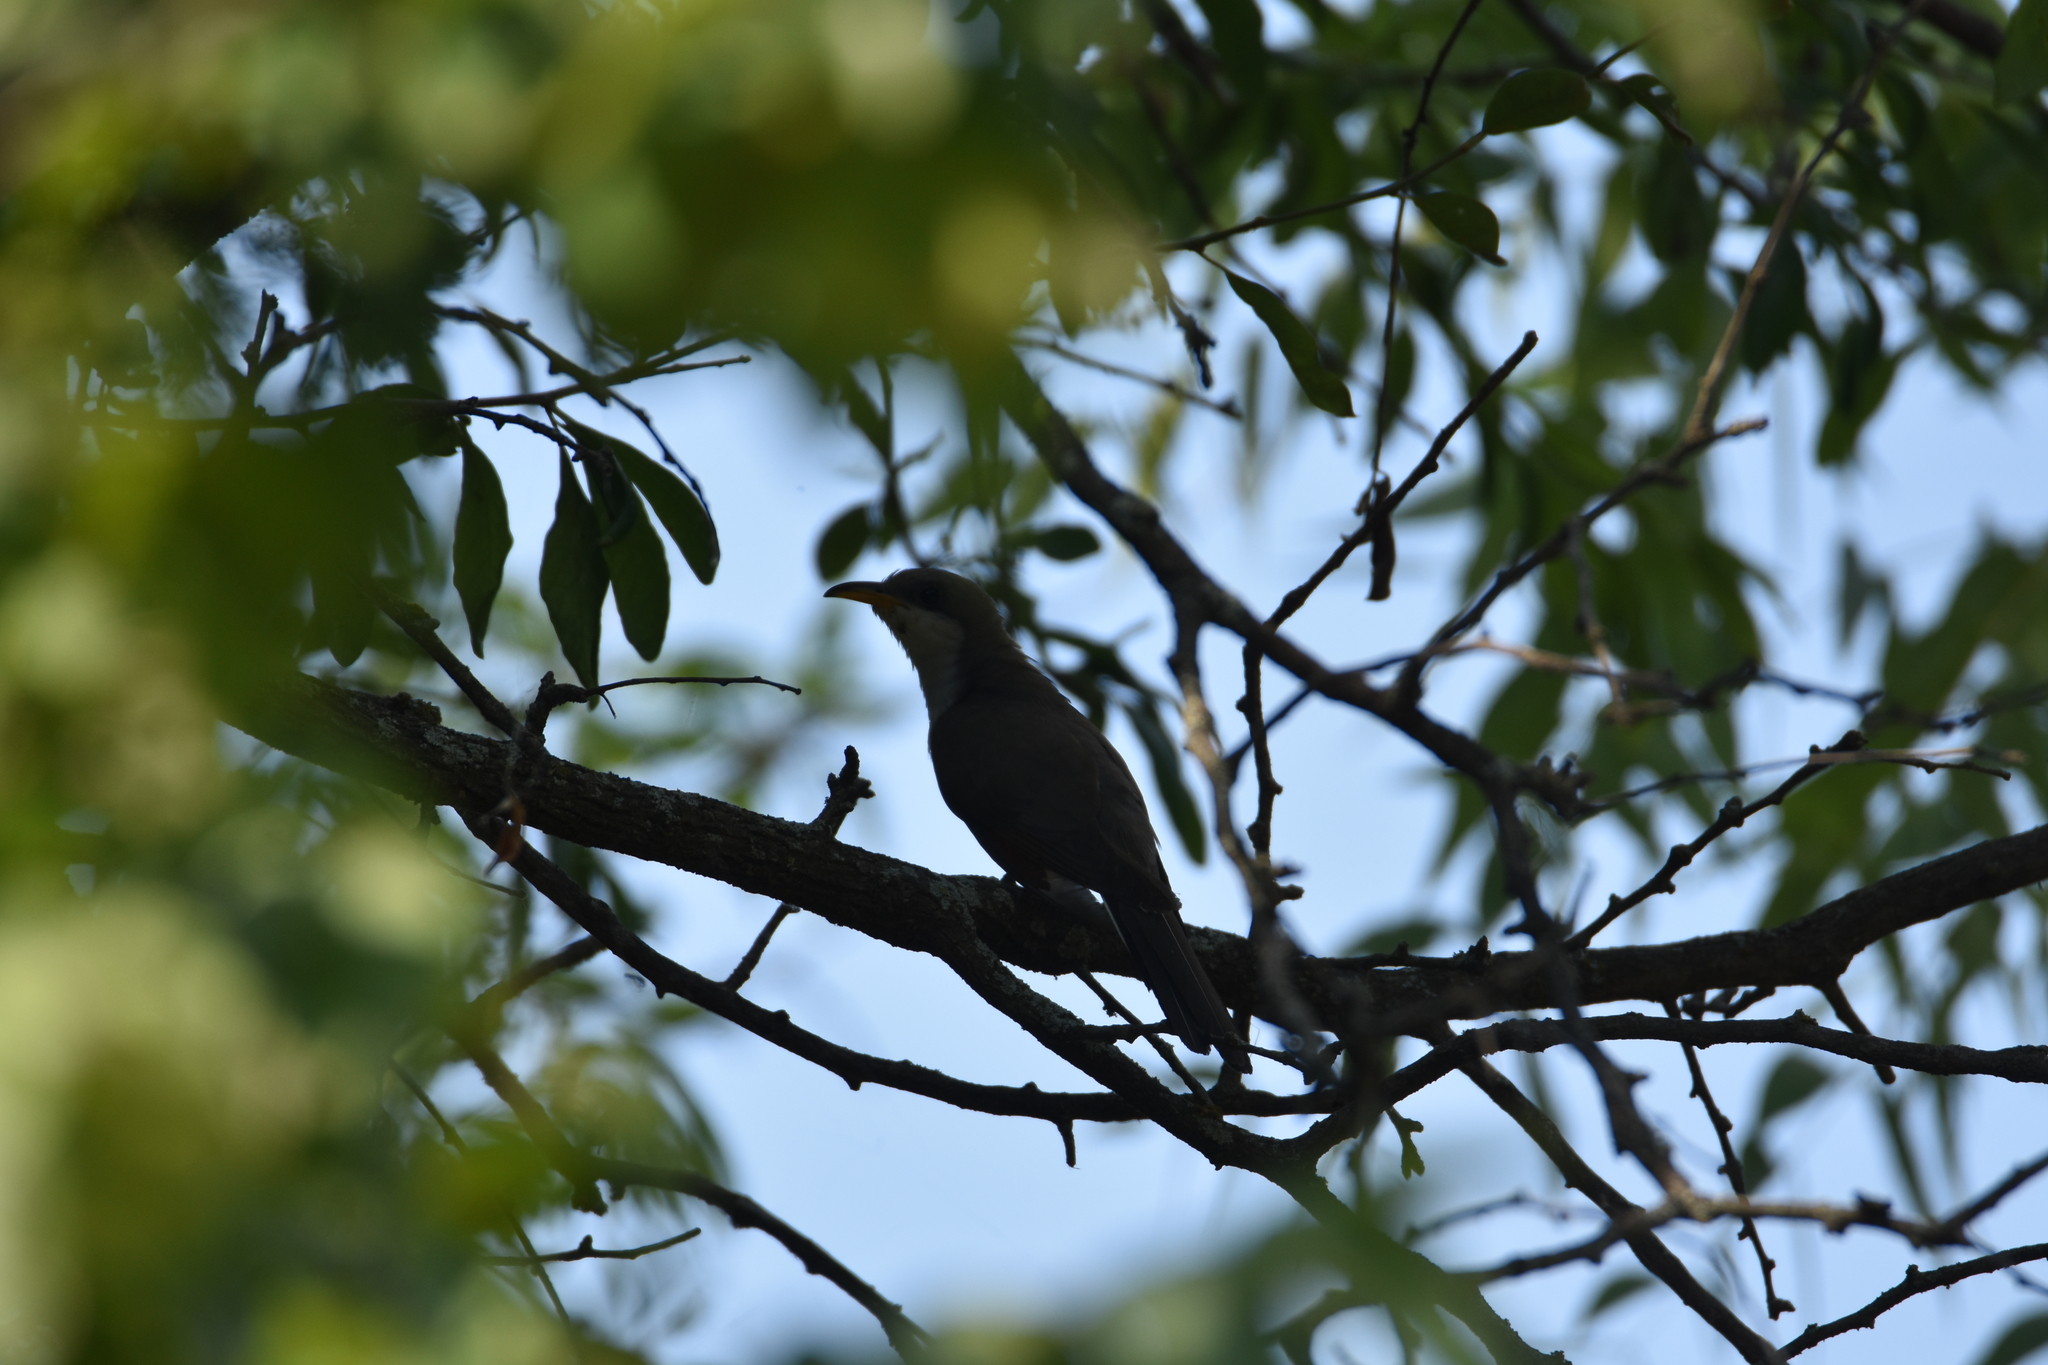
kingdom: Animalia
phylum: Chordata
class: Aves
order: Cuculiformes
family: Cuculidae
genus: Coccyzus
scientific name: Coccyzus americanus
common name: Yellow-billed cuckoo
